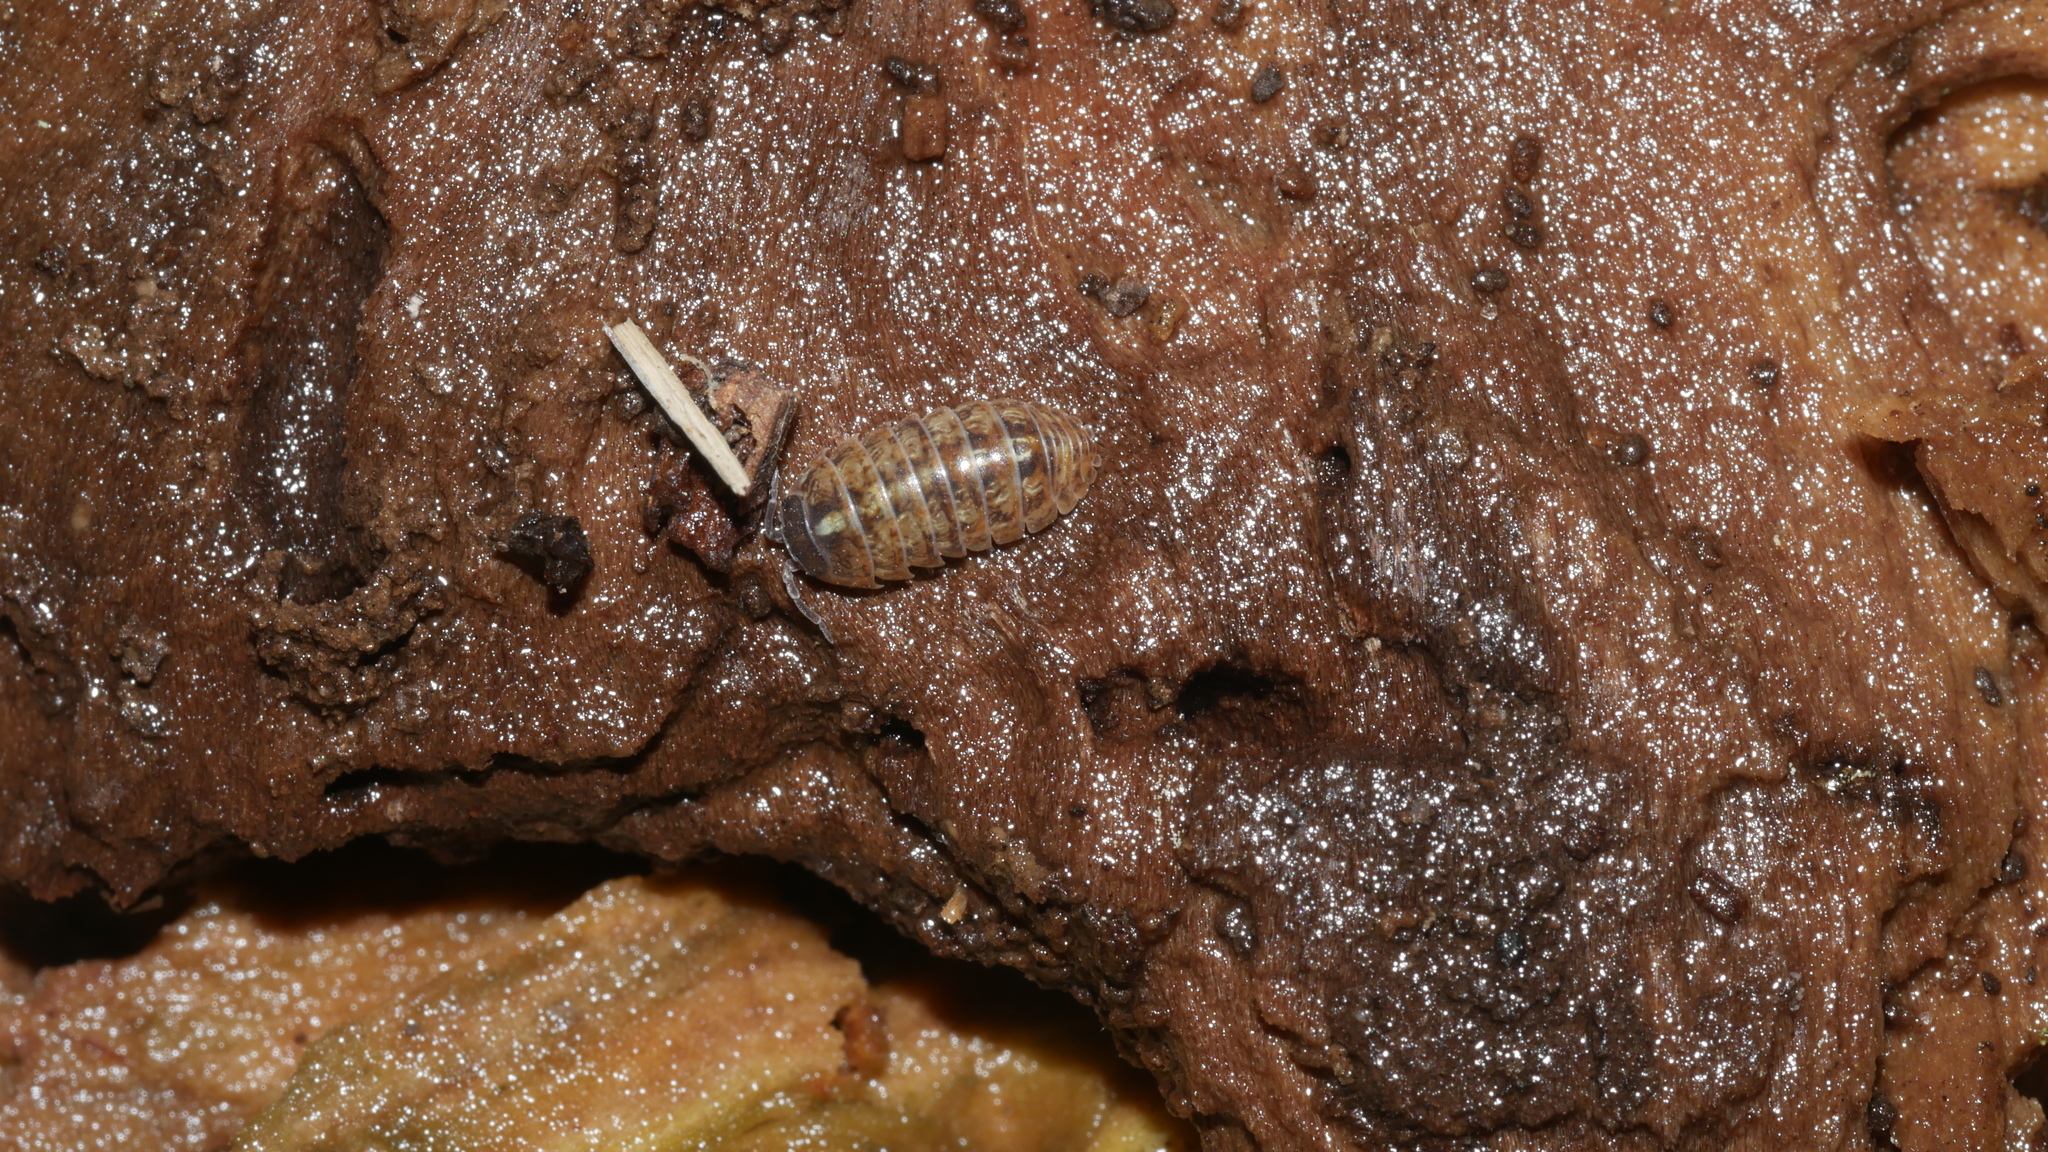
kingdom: Animalia
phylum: Arthropoda
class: Malacostraca
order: Isopoda
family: Armadillidiidae
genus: Armadillidium
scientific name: Armadillidium vulgare
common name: Common pill woodlouse
